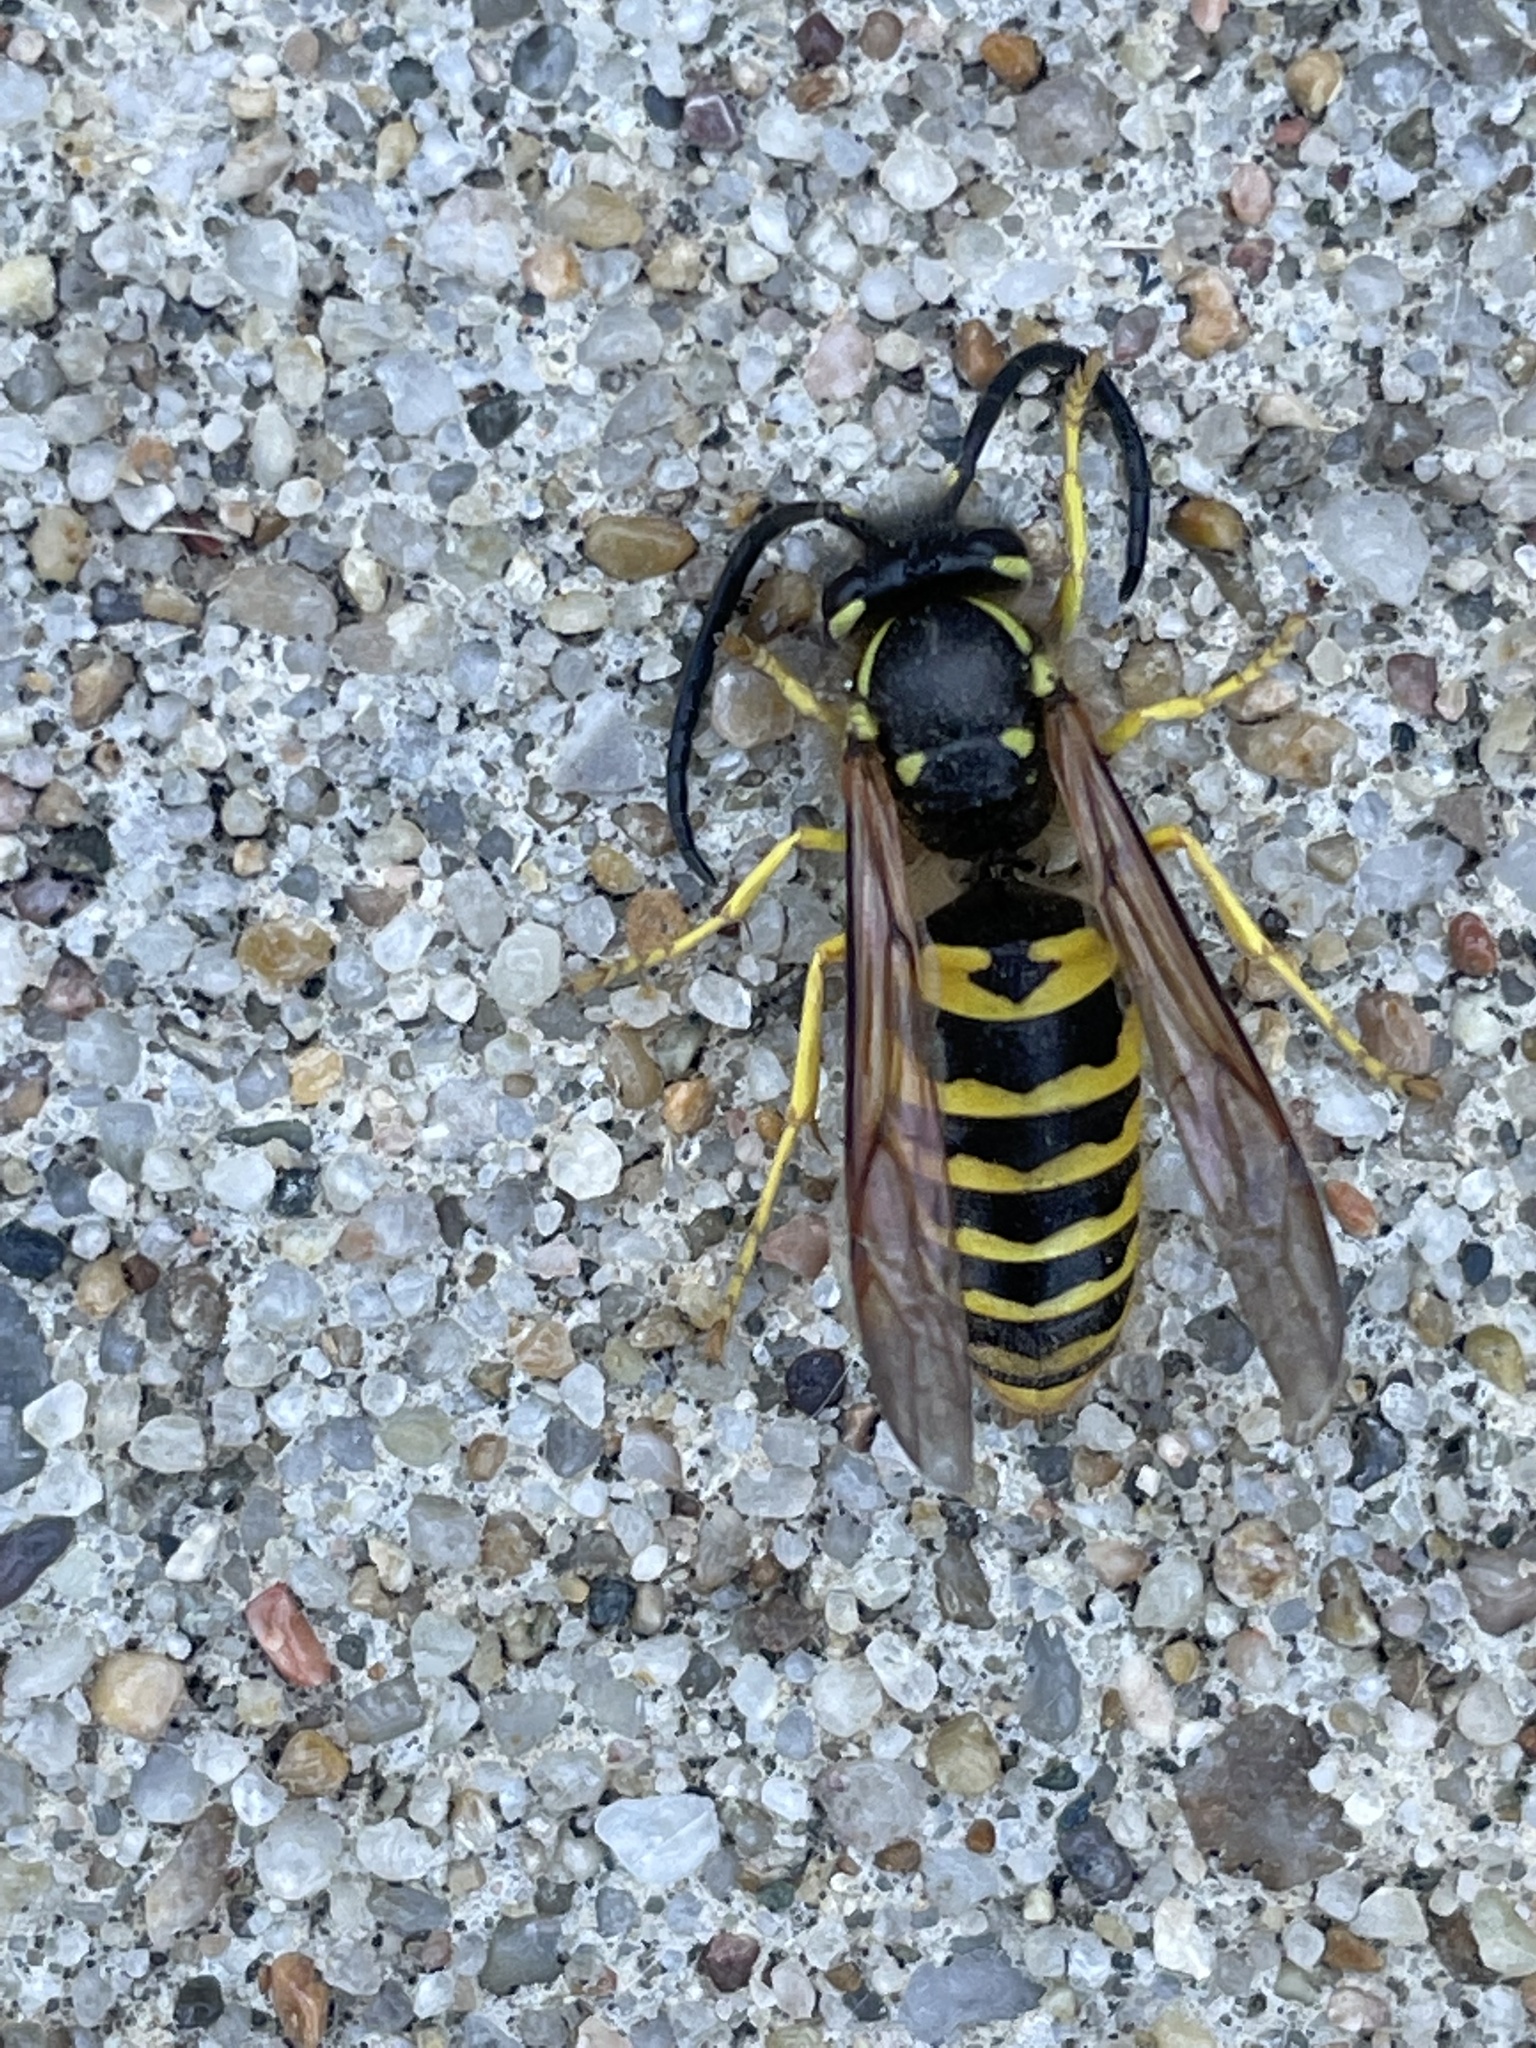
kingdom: Animalia
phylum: Arthropoda
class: Insecta
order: Hymenoptera
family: Vespidae
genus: Vespula
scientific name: Vespula maculifrons
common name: Eastern yellowjacket
